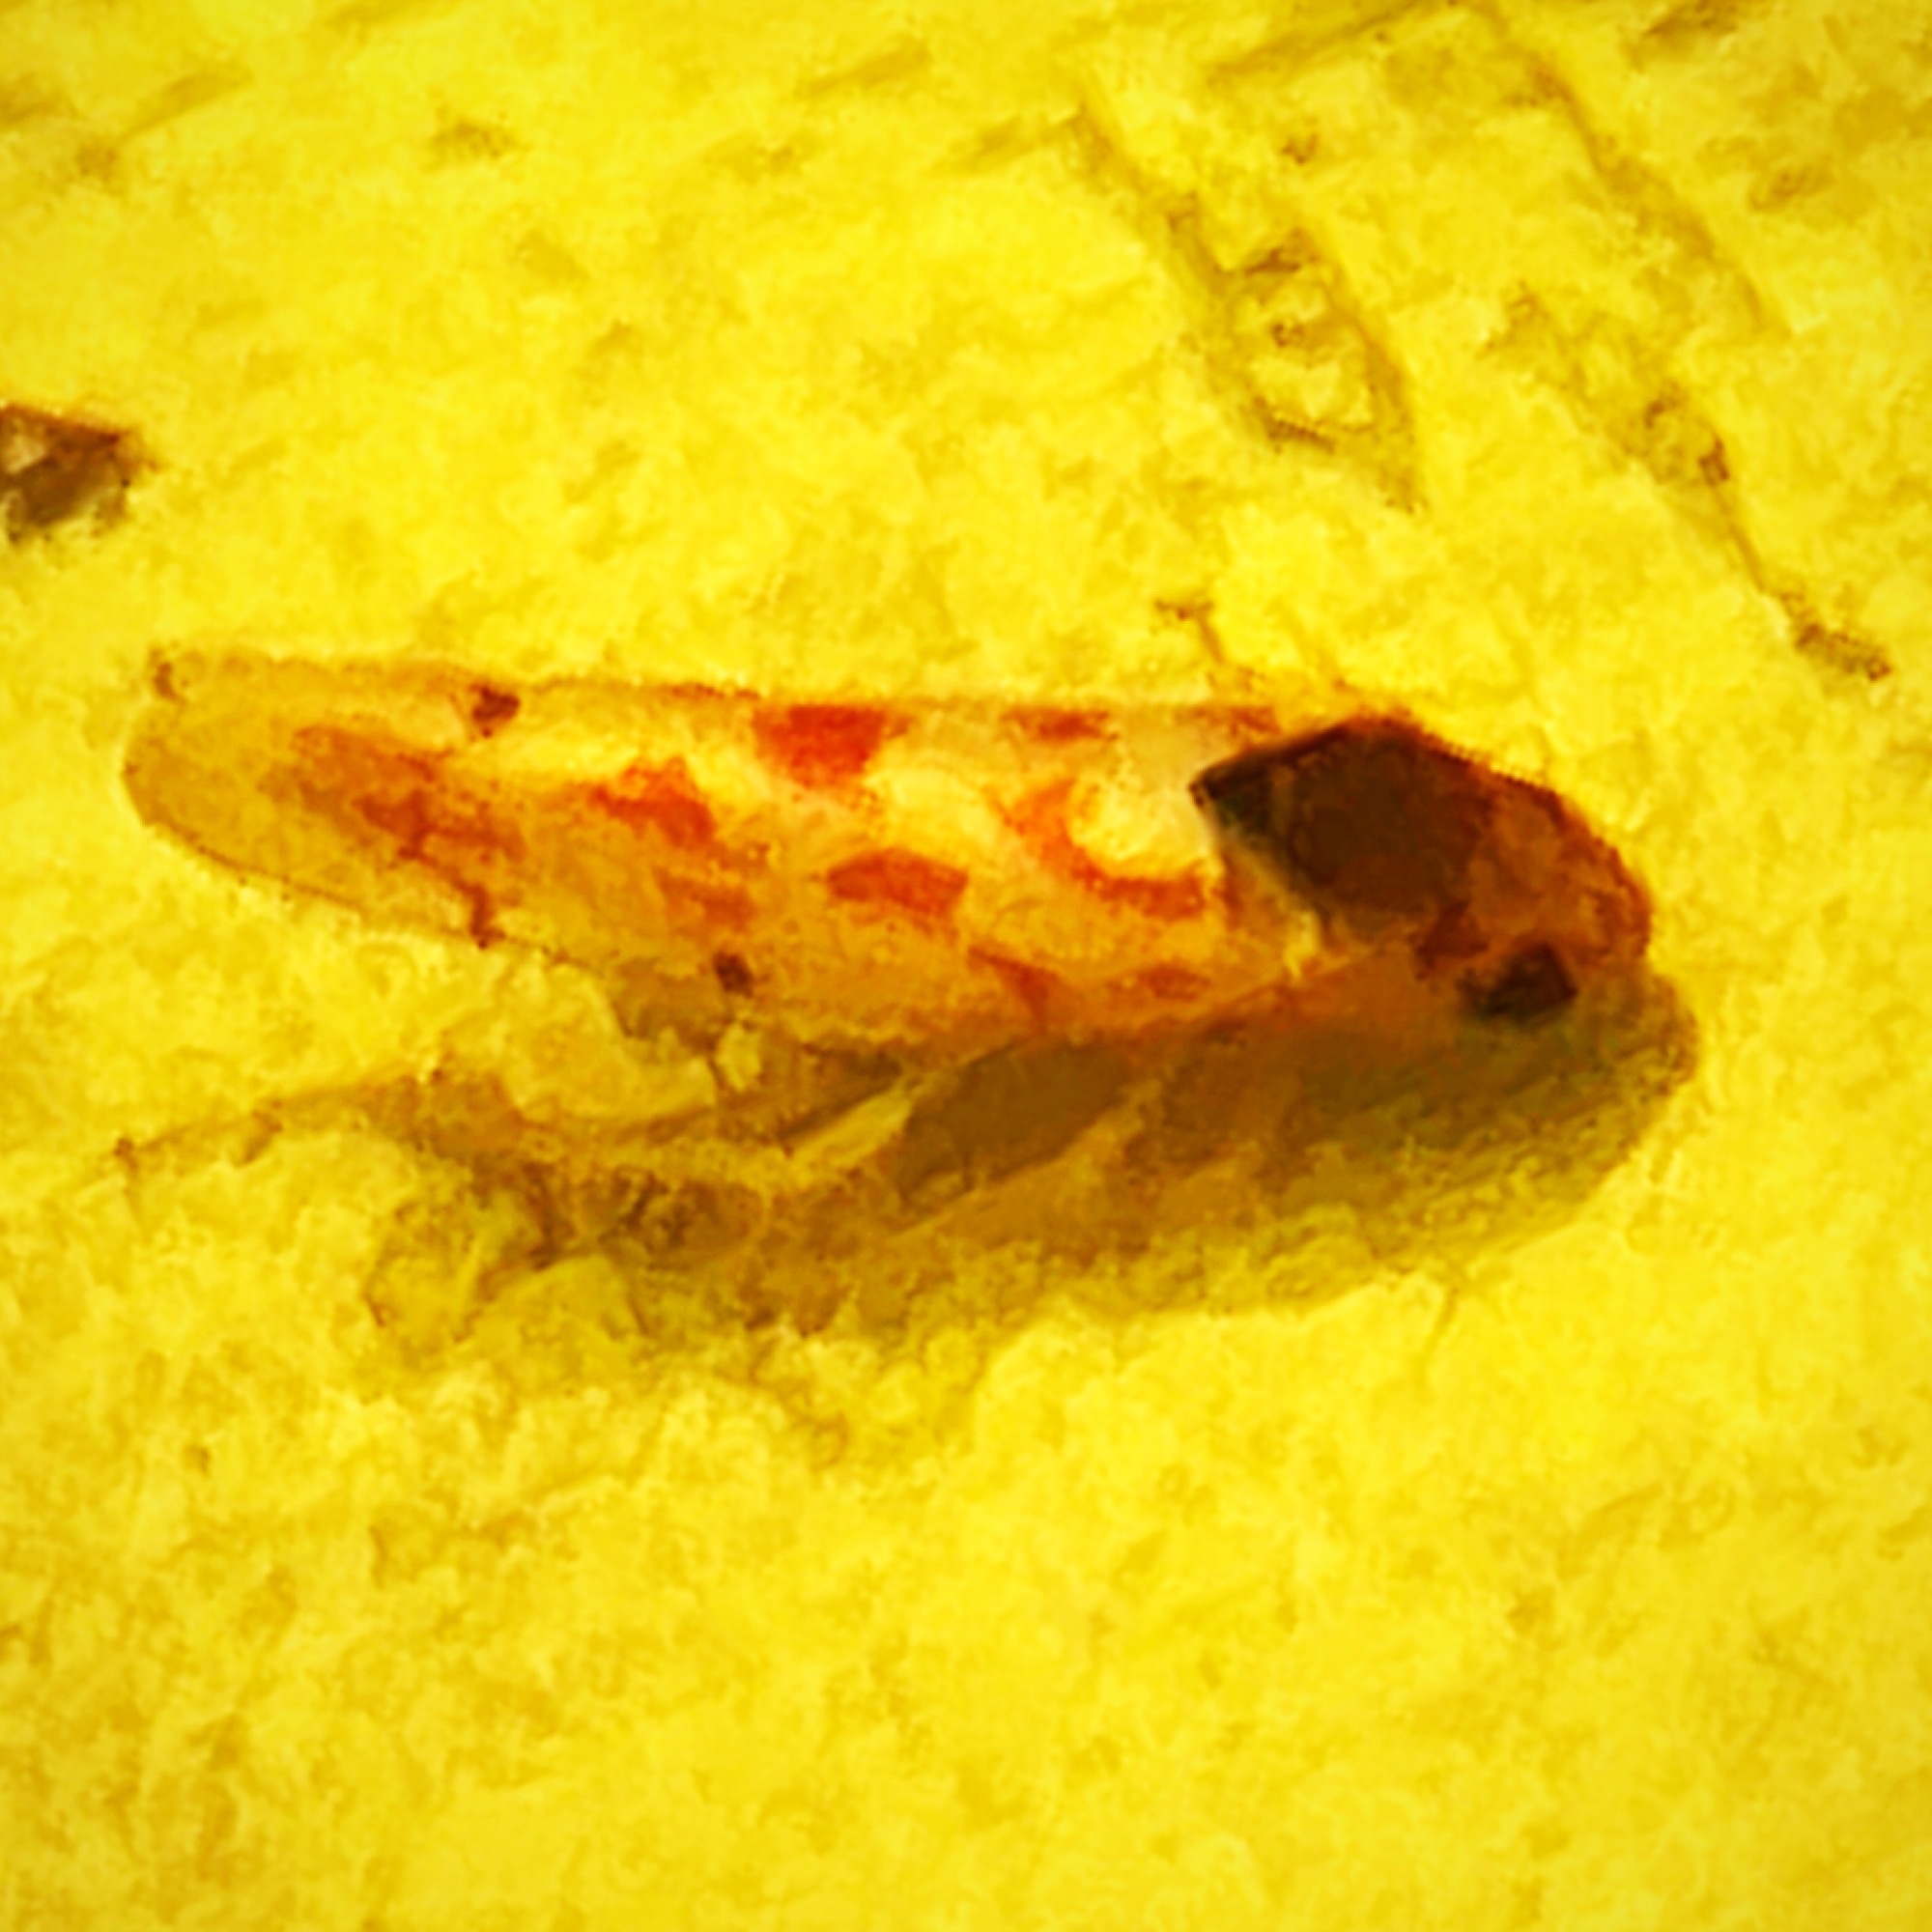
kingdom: Animalia
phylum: Arthropoda
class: Insecta
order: Hemiptera
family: Cicadellidae
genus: Eratoneura
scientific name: Eratoneura ardens
